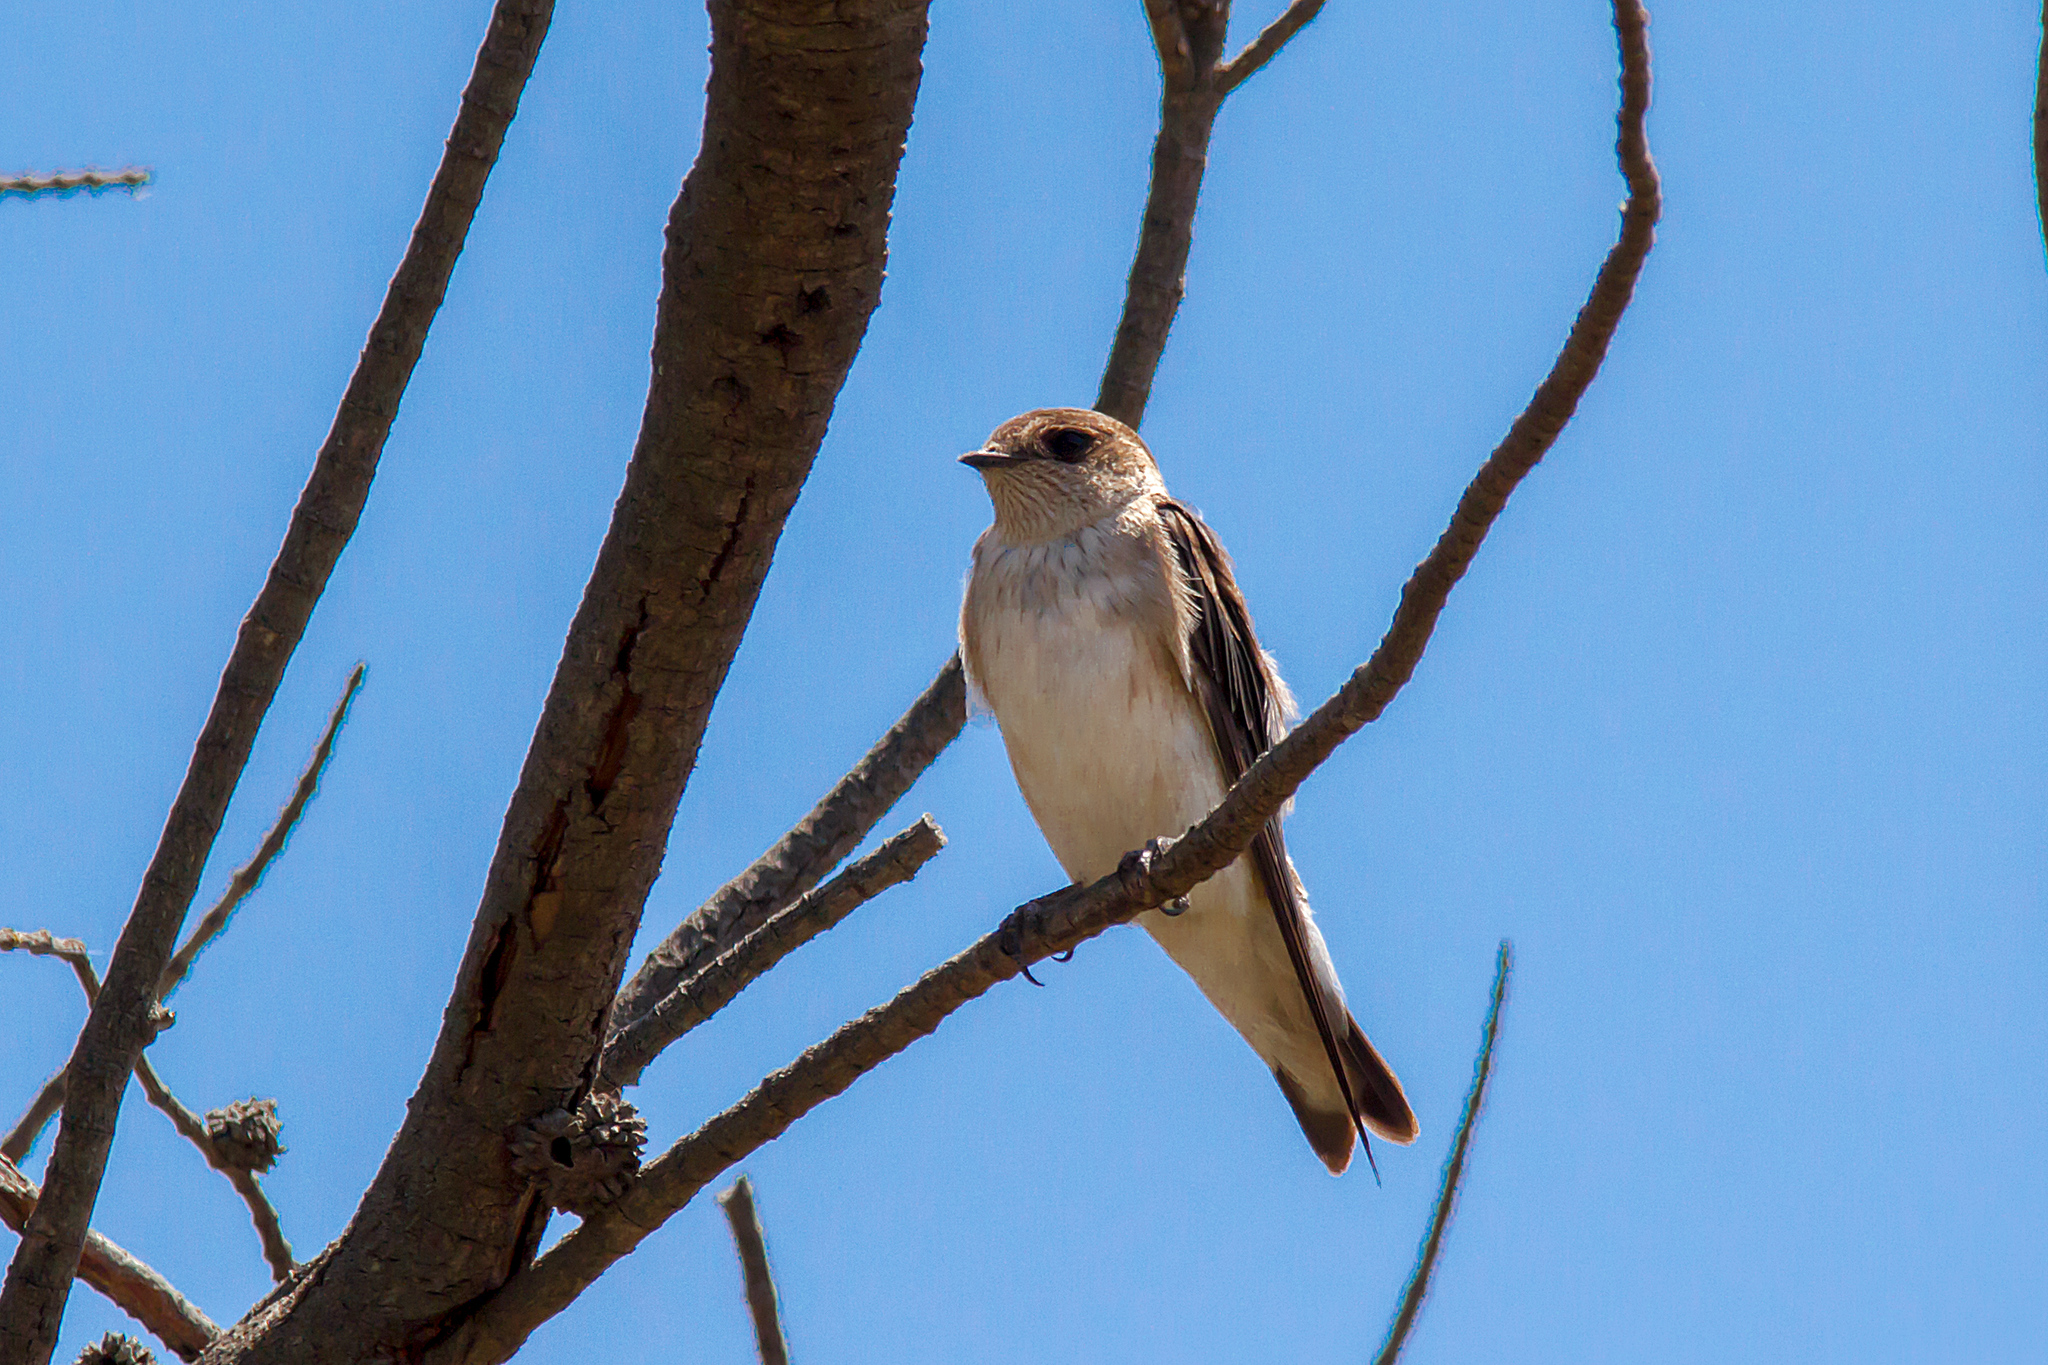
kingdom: Animalia
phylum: Chordata
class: Aves
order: Passeriformes
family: Hirundinidae
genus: Petrochelidon
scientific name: Petrochelidon ariel
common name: Fairy martin
